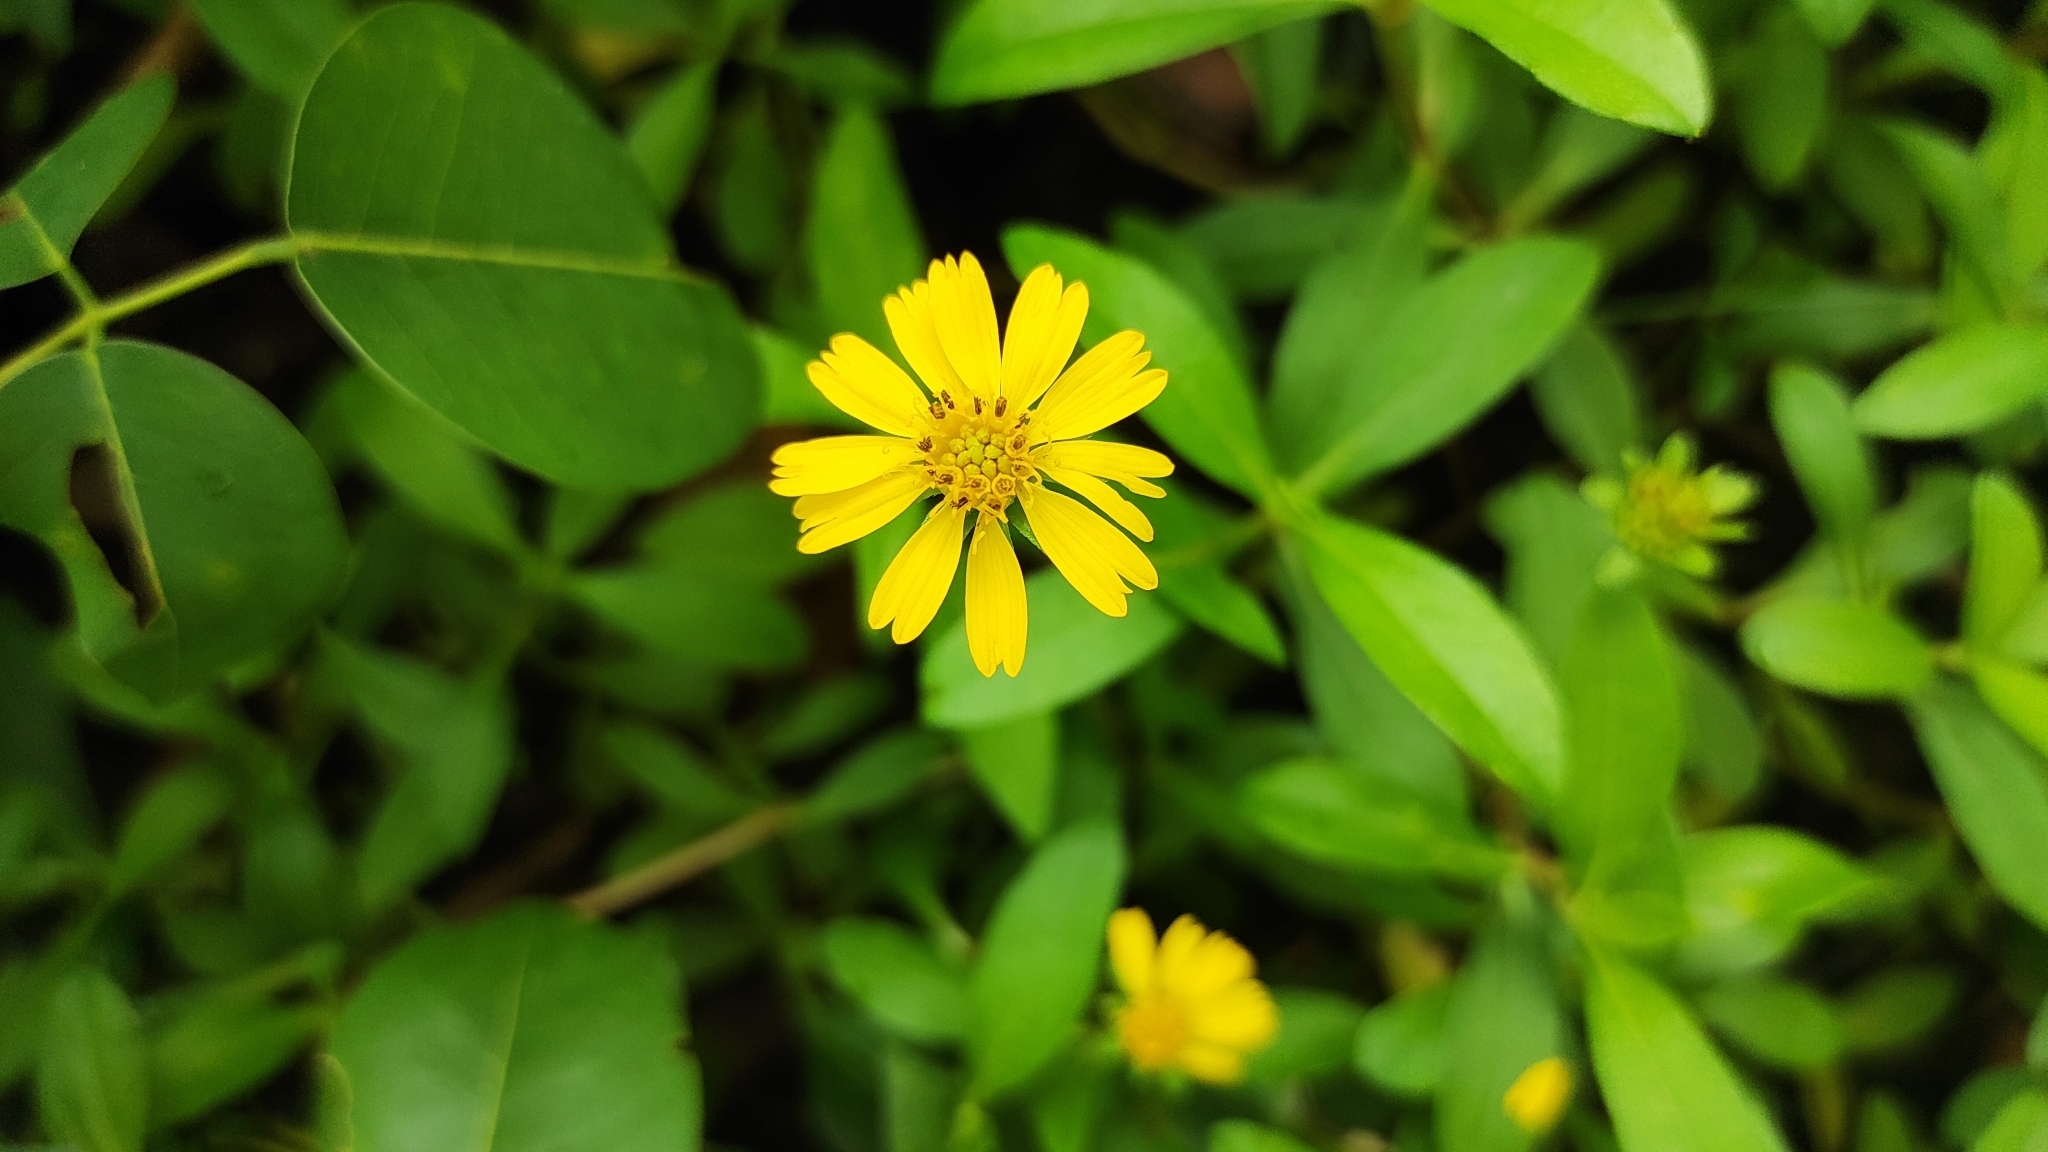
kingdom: Plantae
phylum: Tracheophyta
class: Magnoliopsida
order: Asterales
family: Asteraceae
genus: Sphagneticola
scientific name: Sphagneticola trilobata
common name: Bay biscayne creeping-oxeye
